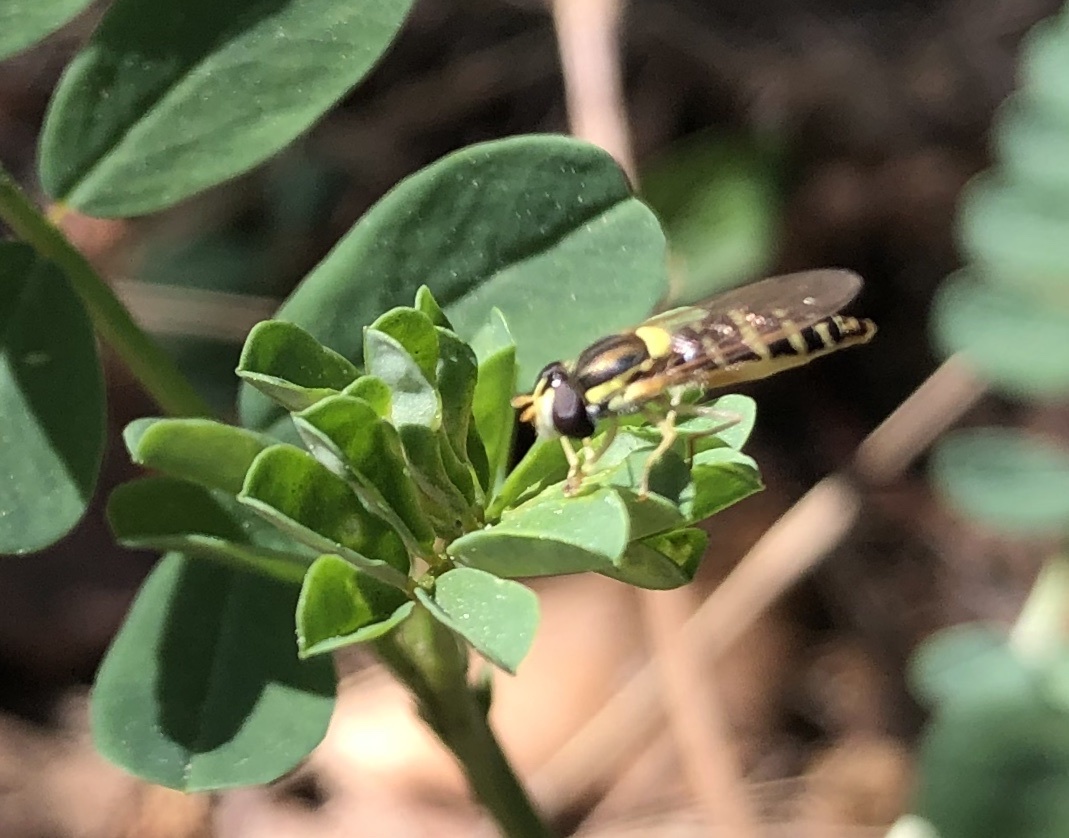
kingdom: Animalia
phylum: Arthropoda
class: Insecta
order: Diptera
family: Syrphidae
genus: Sphaerophoria
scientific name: Sphaerophoria
